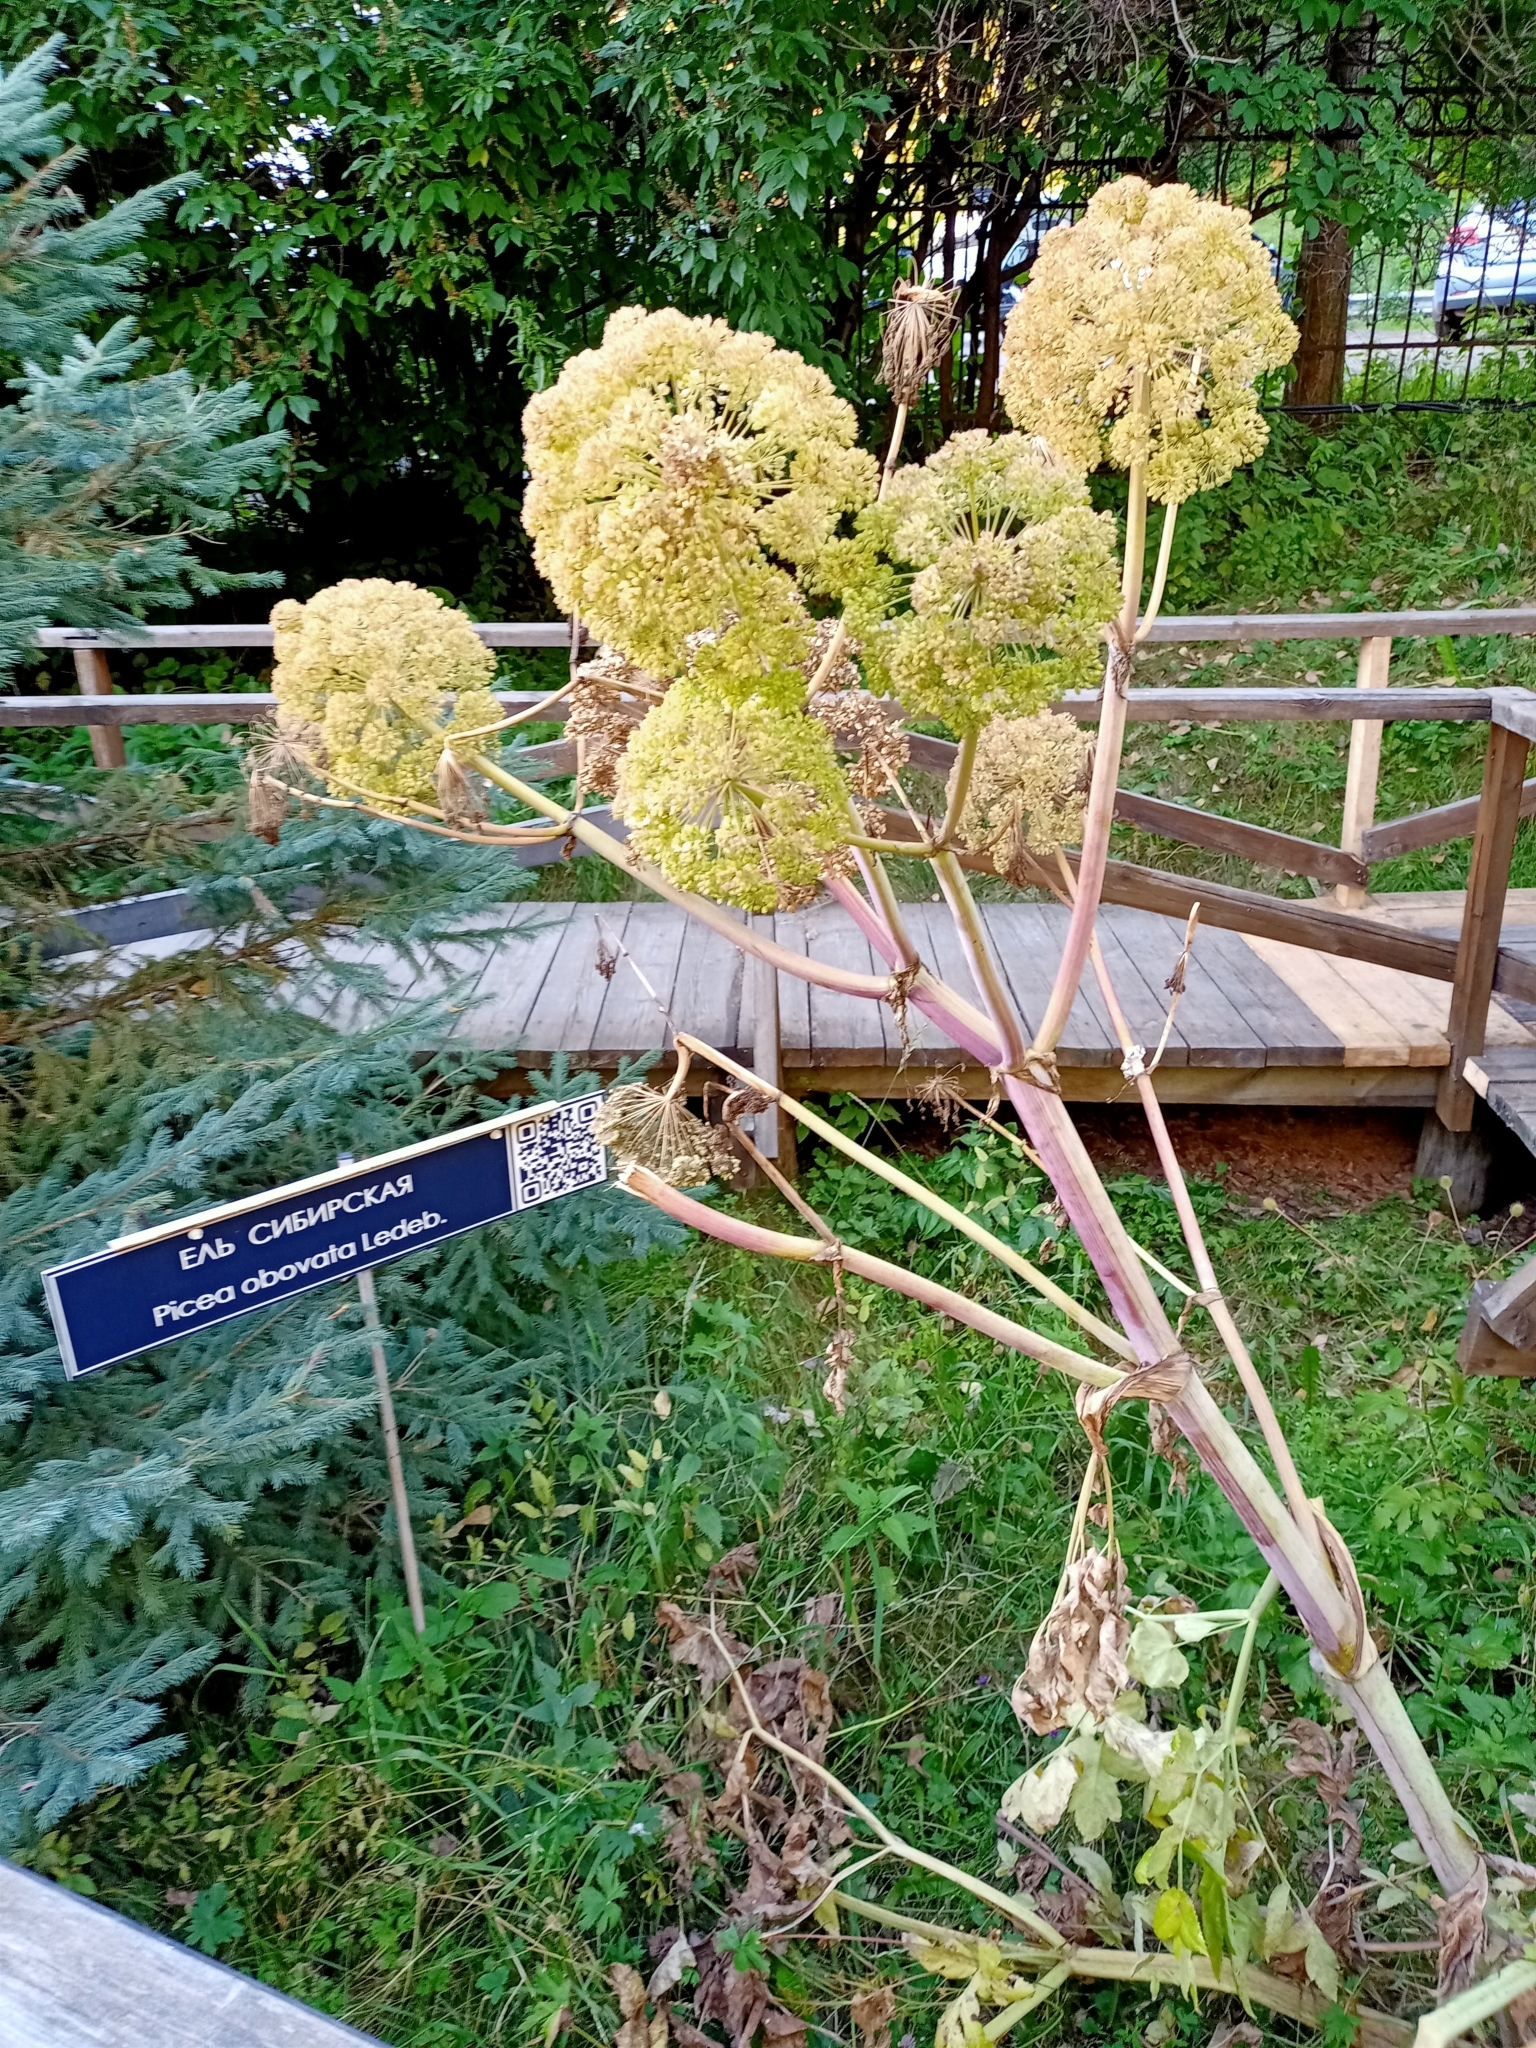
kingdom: Plantae
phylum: Tracheophyta
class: Magnoliopsida
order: Apiales
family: Apiaceae
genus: Angelica
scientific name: Angelica sylvestris
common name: Wild angelica
